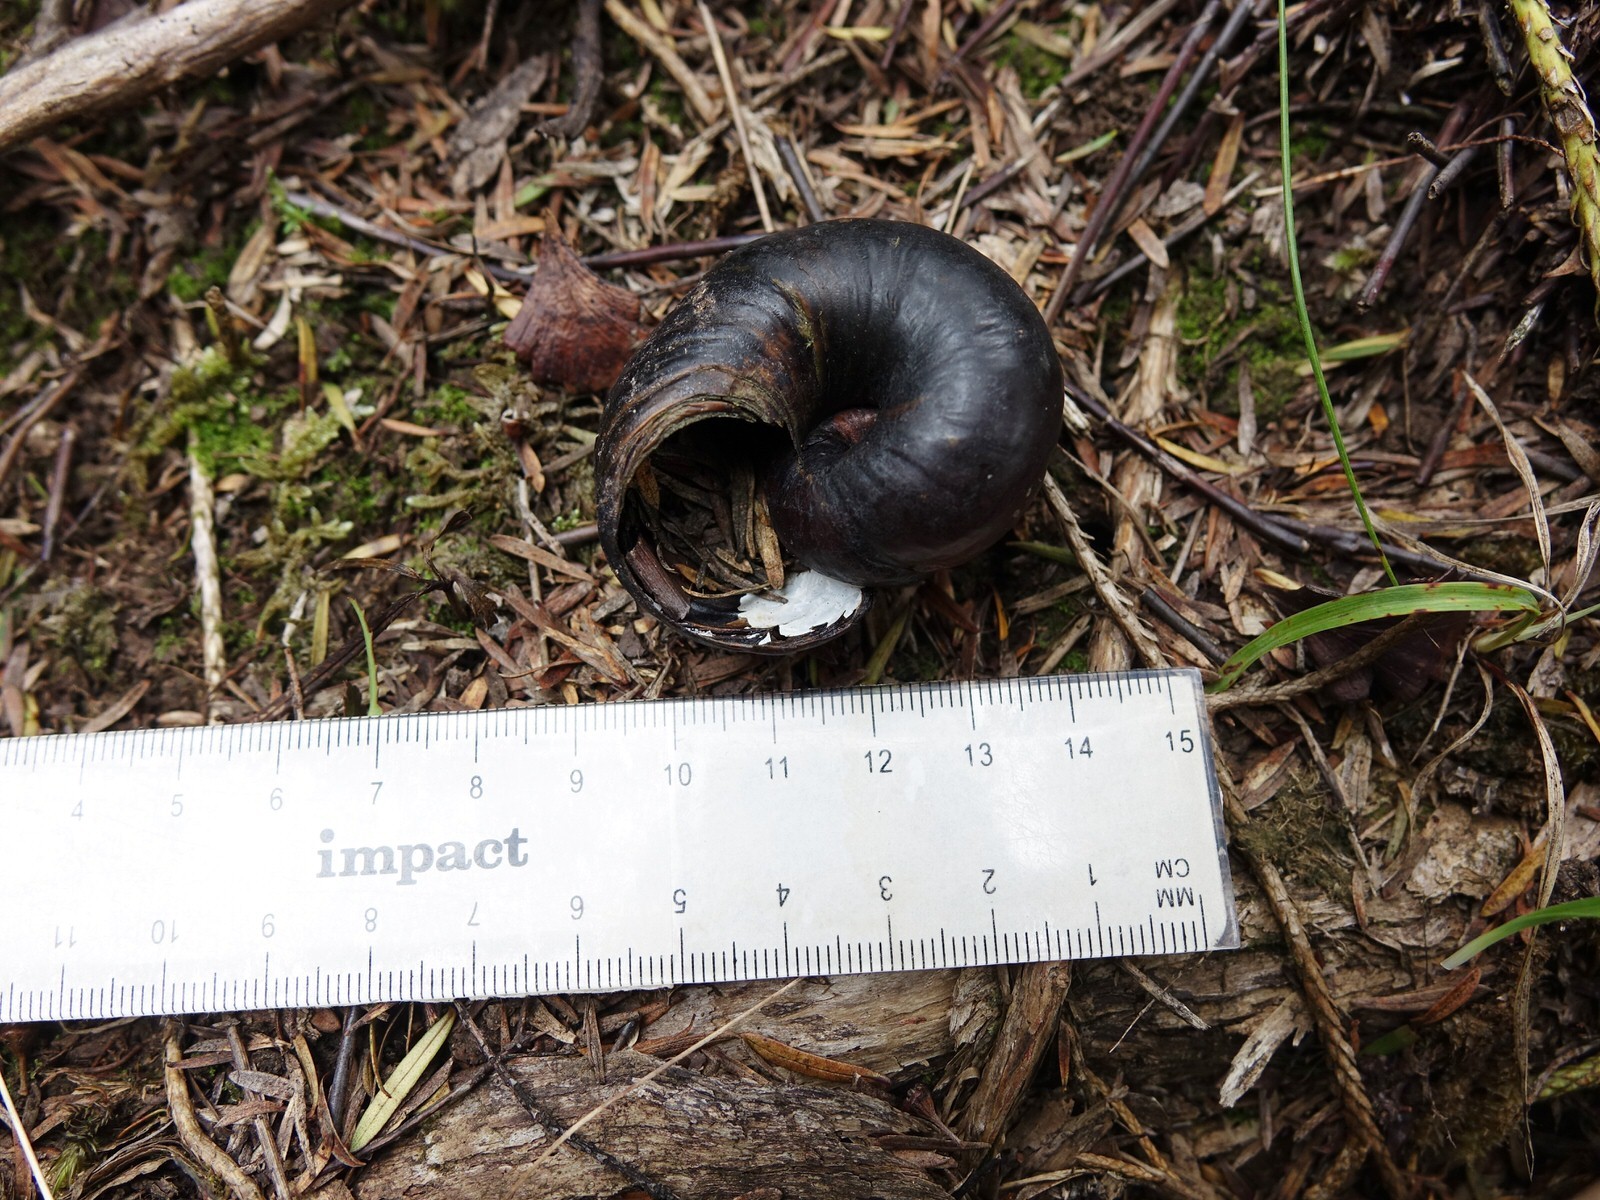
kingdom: Animalia
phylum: Mollusca
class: Gastropoda
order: Stylommatophora
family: Rhytididae
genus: Paryphanta
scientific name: Paryphanta busbyi
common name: Kauri snail
